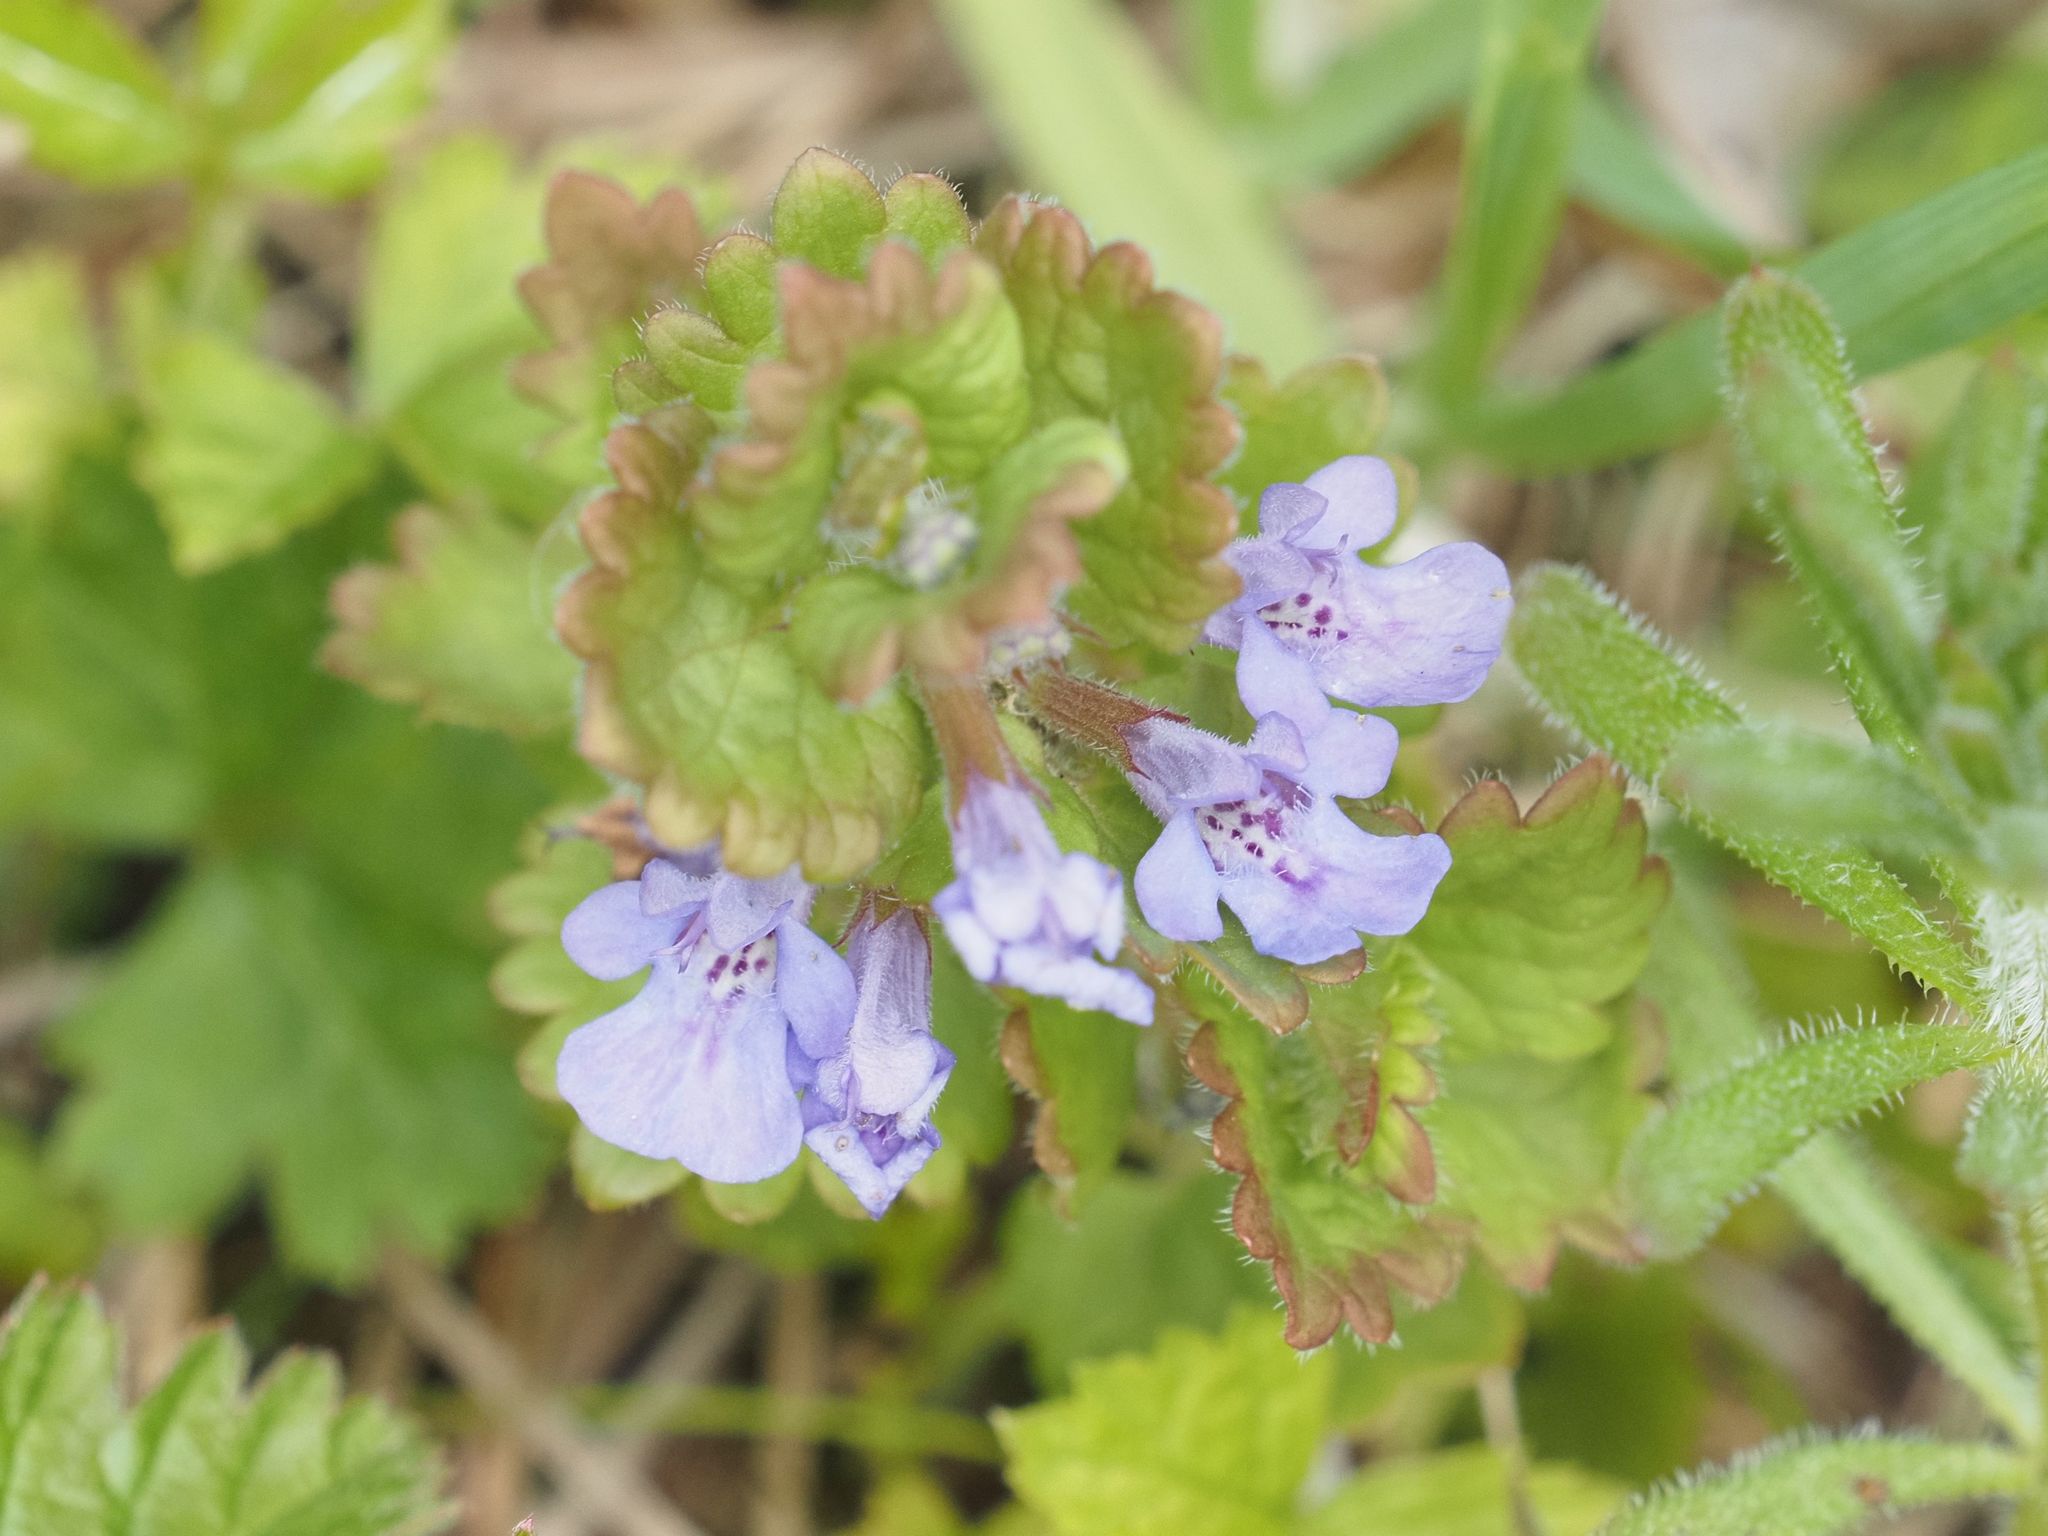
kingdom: Plantae
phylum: Tracheophyta
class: Magnoliopsida
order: Lamiales
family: Lamiaceae
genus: Glechoma
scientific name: Glechoma hederacea
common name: Ground ivy
